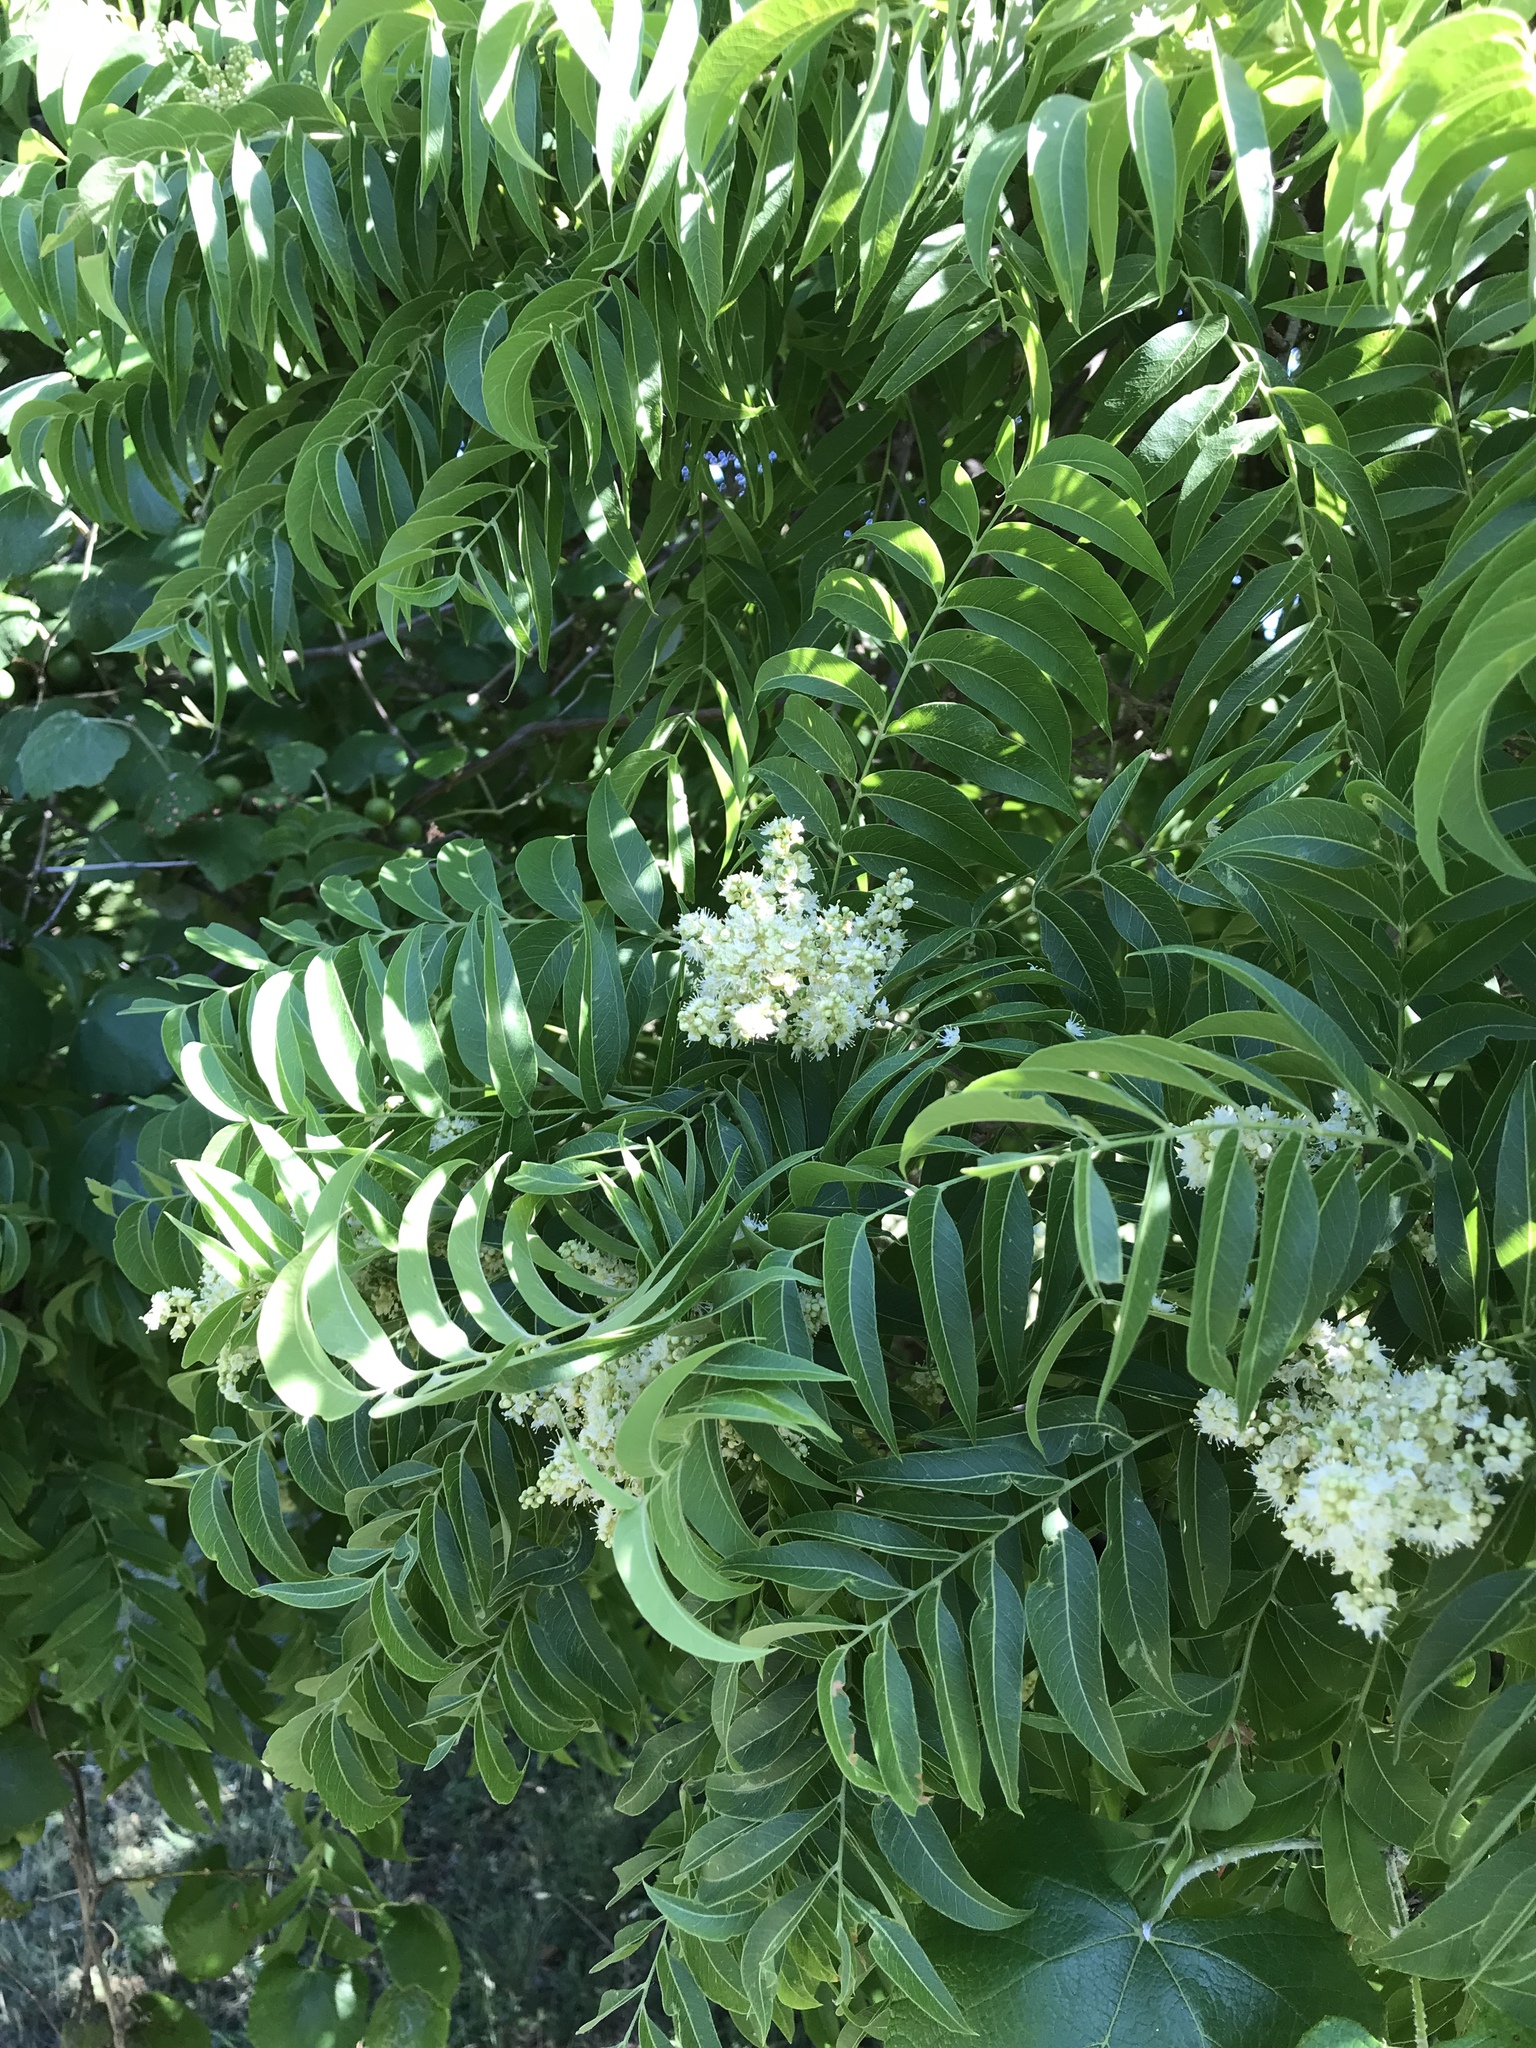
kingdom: Plantae
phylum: Tracheophyta
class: Magnoliopsida
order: Sapindales
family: Sapindaceae
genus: Sapindus
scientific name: Sapindus drummondii
